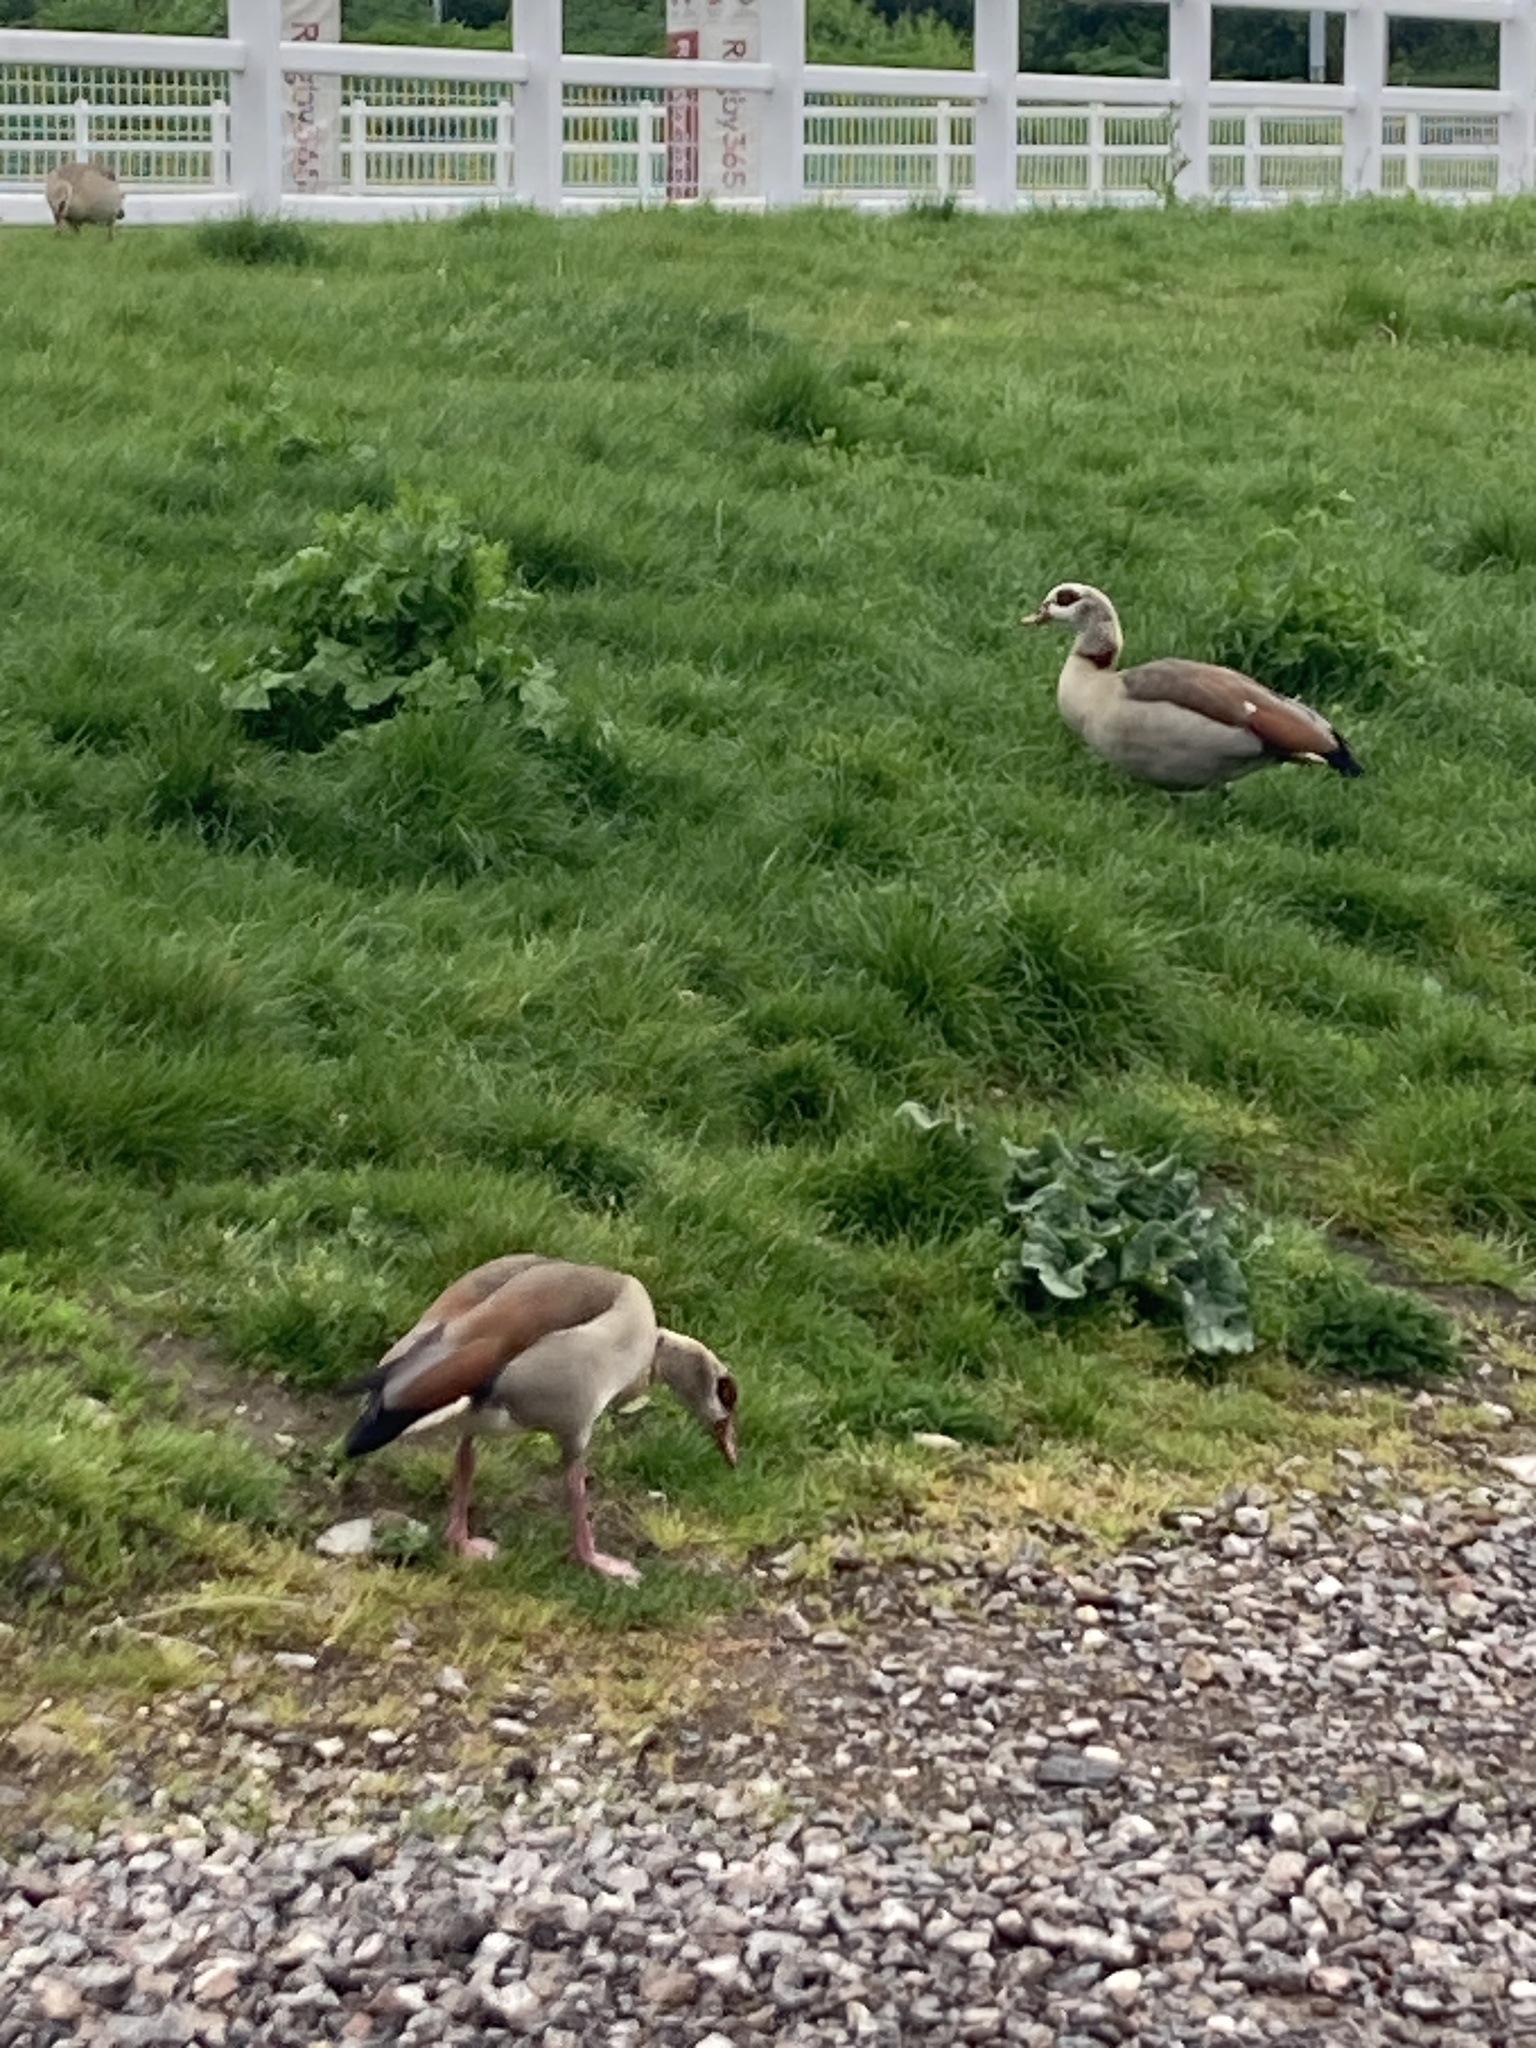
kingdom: Animalia
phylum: Chordata
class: Aves
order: Anseriformes
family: Anatidae
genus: Alopochen
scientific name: Alopochen aegyptiaca
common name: Egyptian goose
